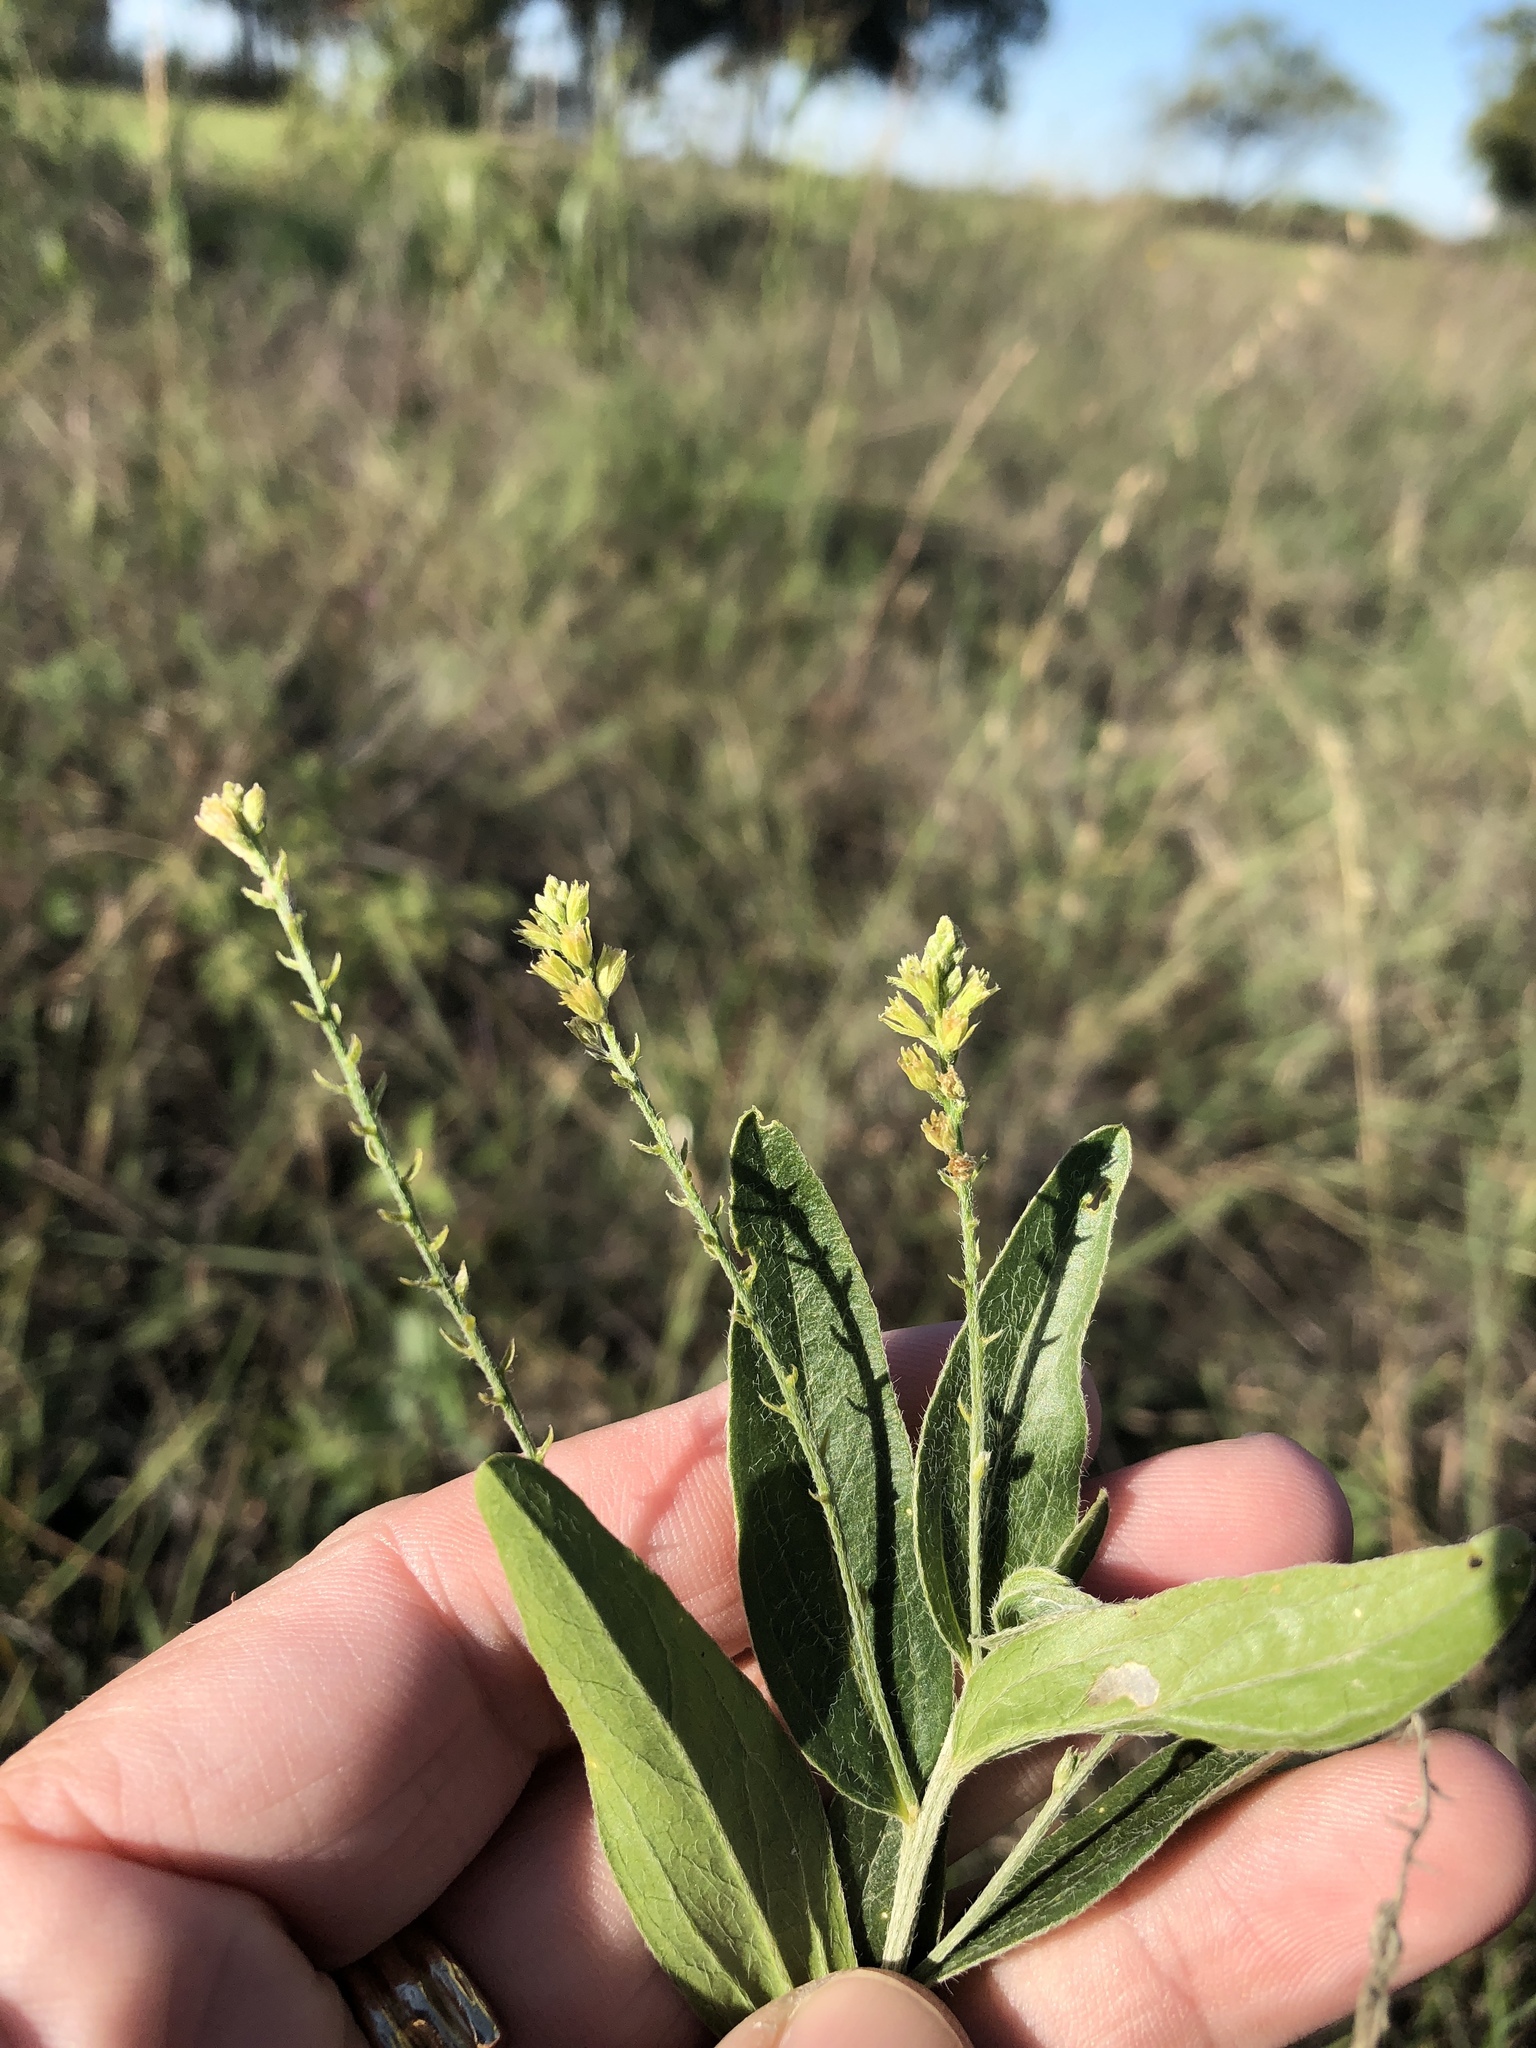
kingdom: Plantae
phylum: Tracheophyta
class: Magnoliopsida
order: Malpighiales
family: Euphorbiaceae
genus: Ditaxis
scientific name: Ditaxis mercurialina
